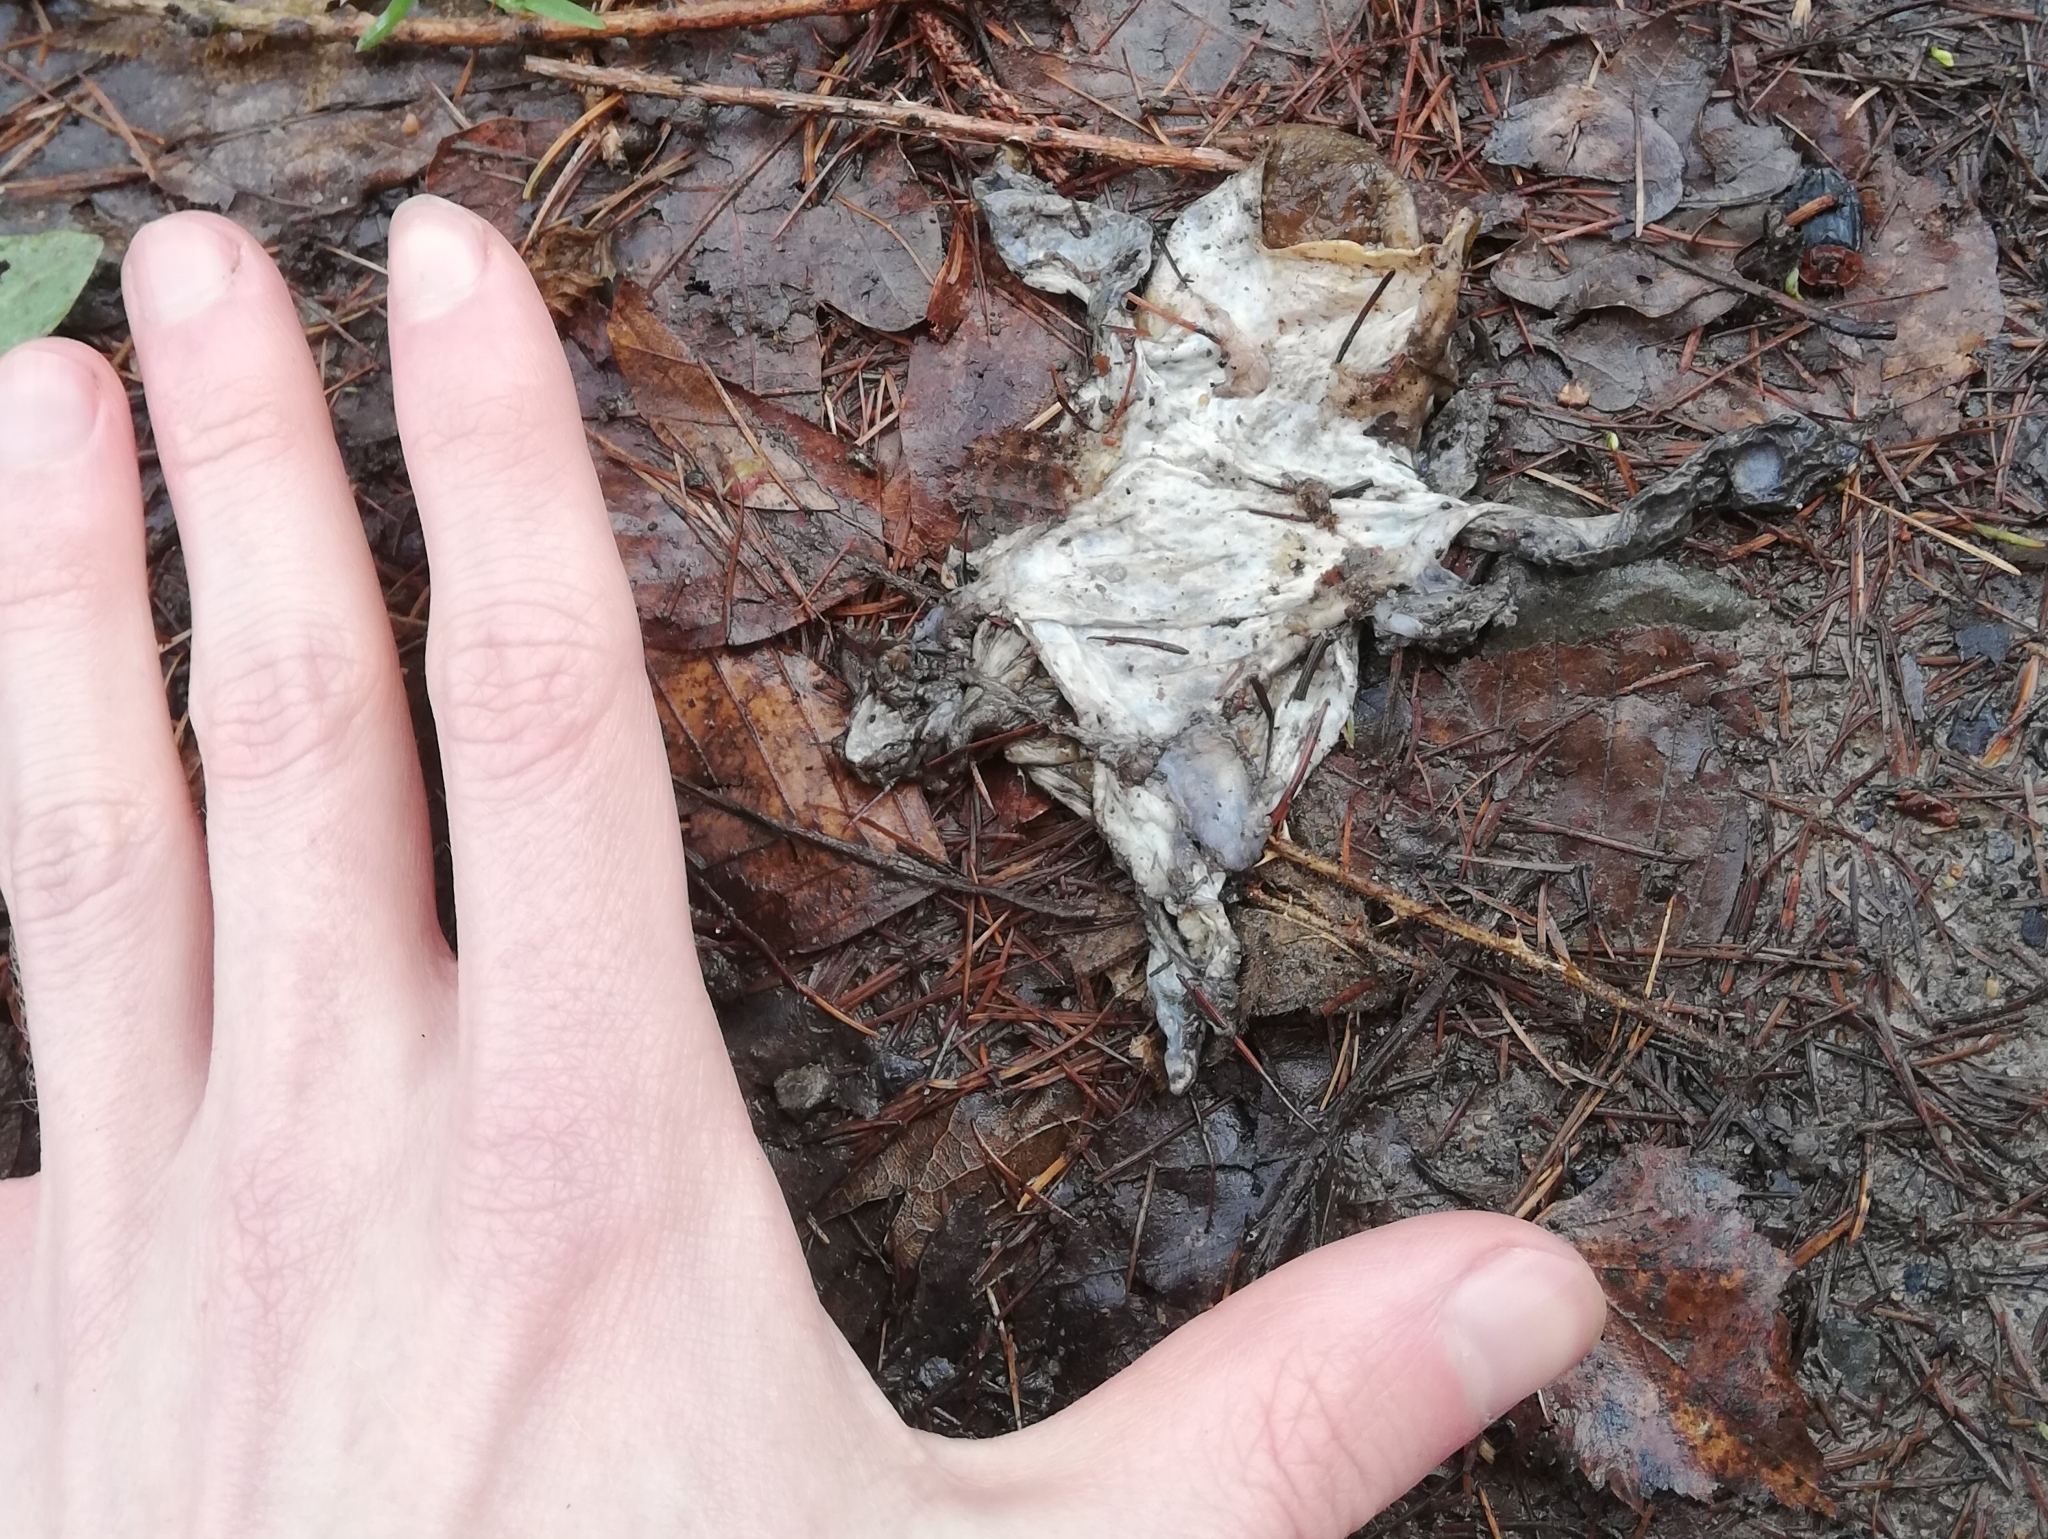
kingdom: Animalia
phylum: Chordata
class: Amphibia
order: Anura
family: Bufonidae
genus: Bufo
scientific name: Bufo bufo
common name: Common toad
